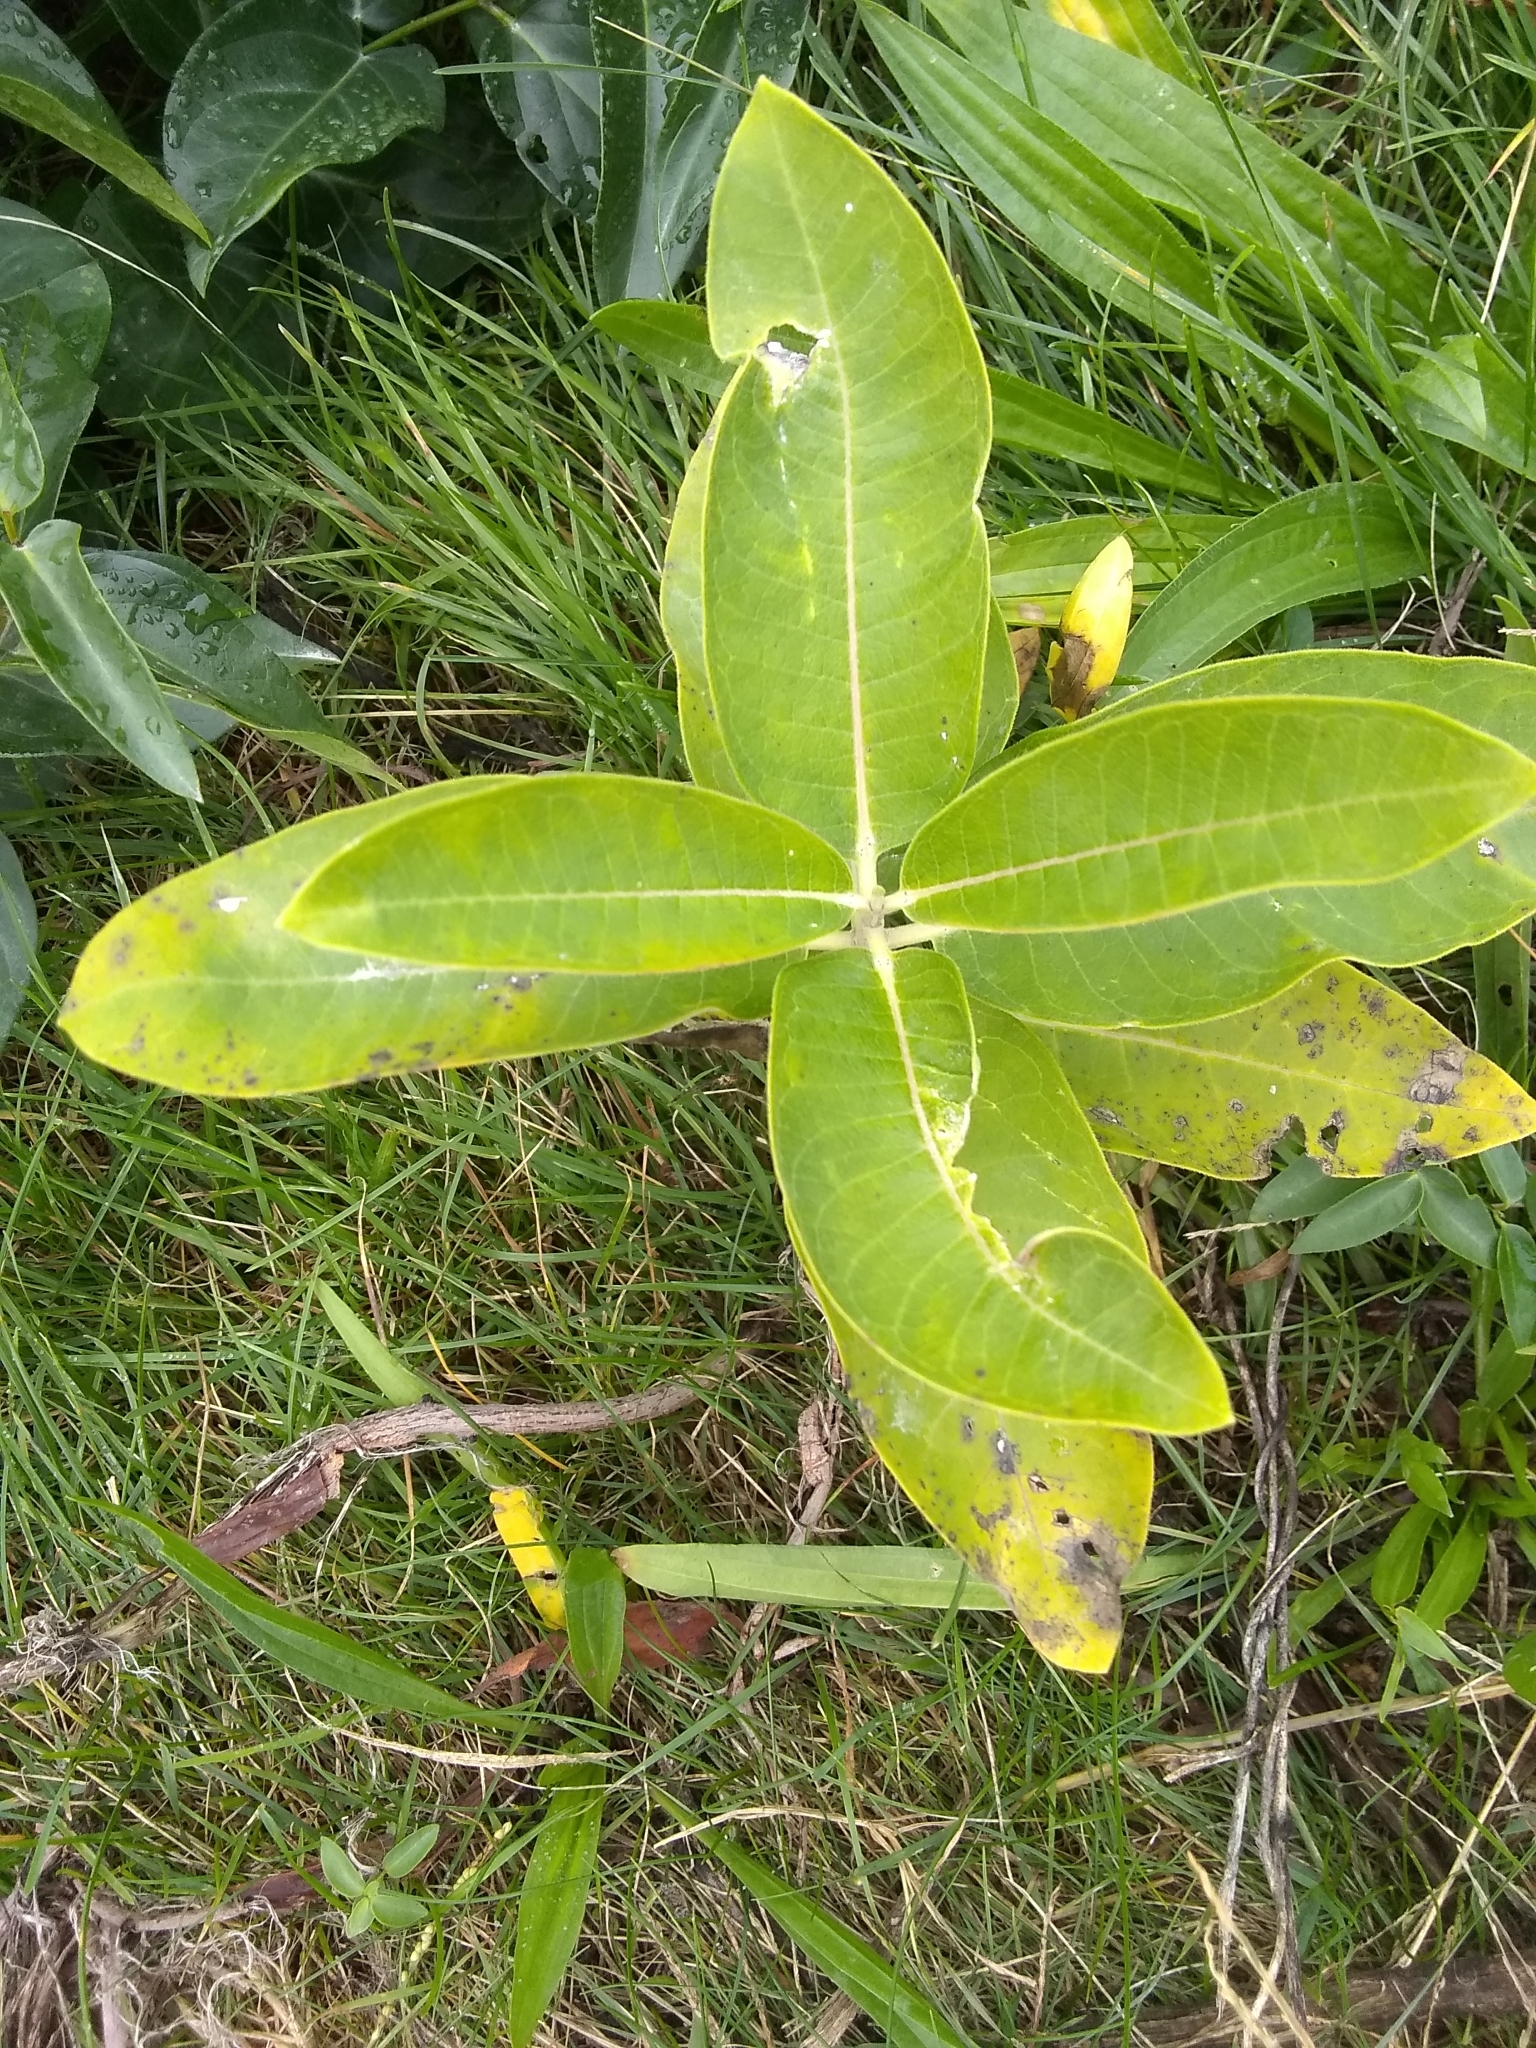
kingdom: Plantae
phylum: Tracheophyta
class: Magnoliopsida
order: Gentianales
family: Apocynaceae
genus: Asclepias
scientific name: Asclepias syriaca
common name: Common milkweed
